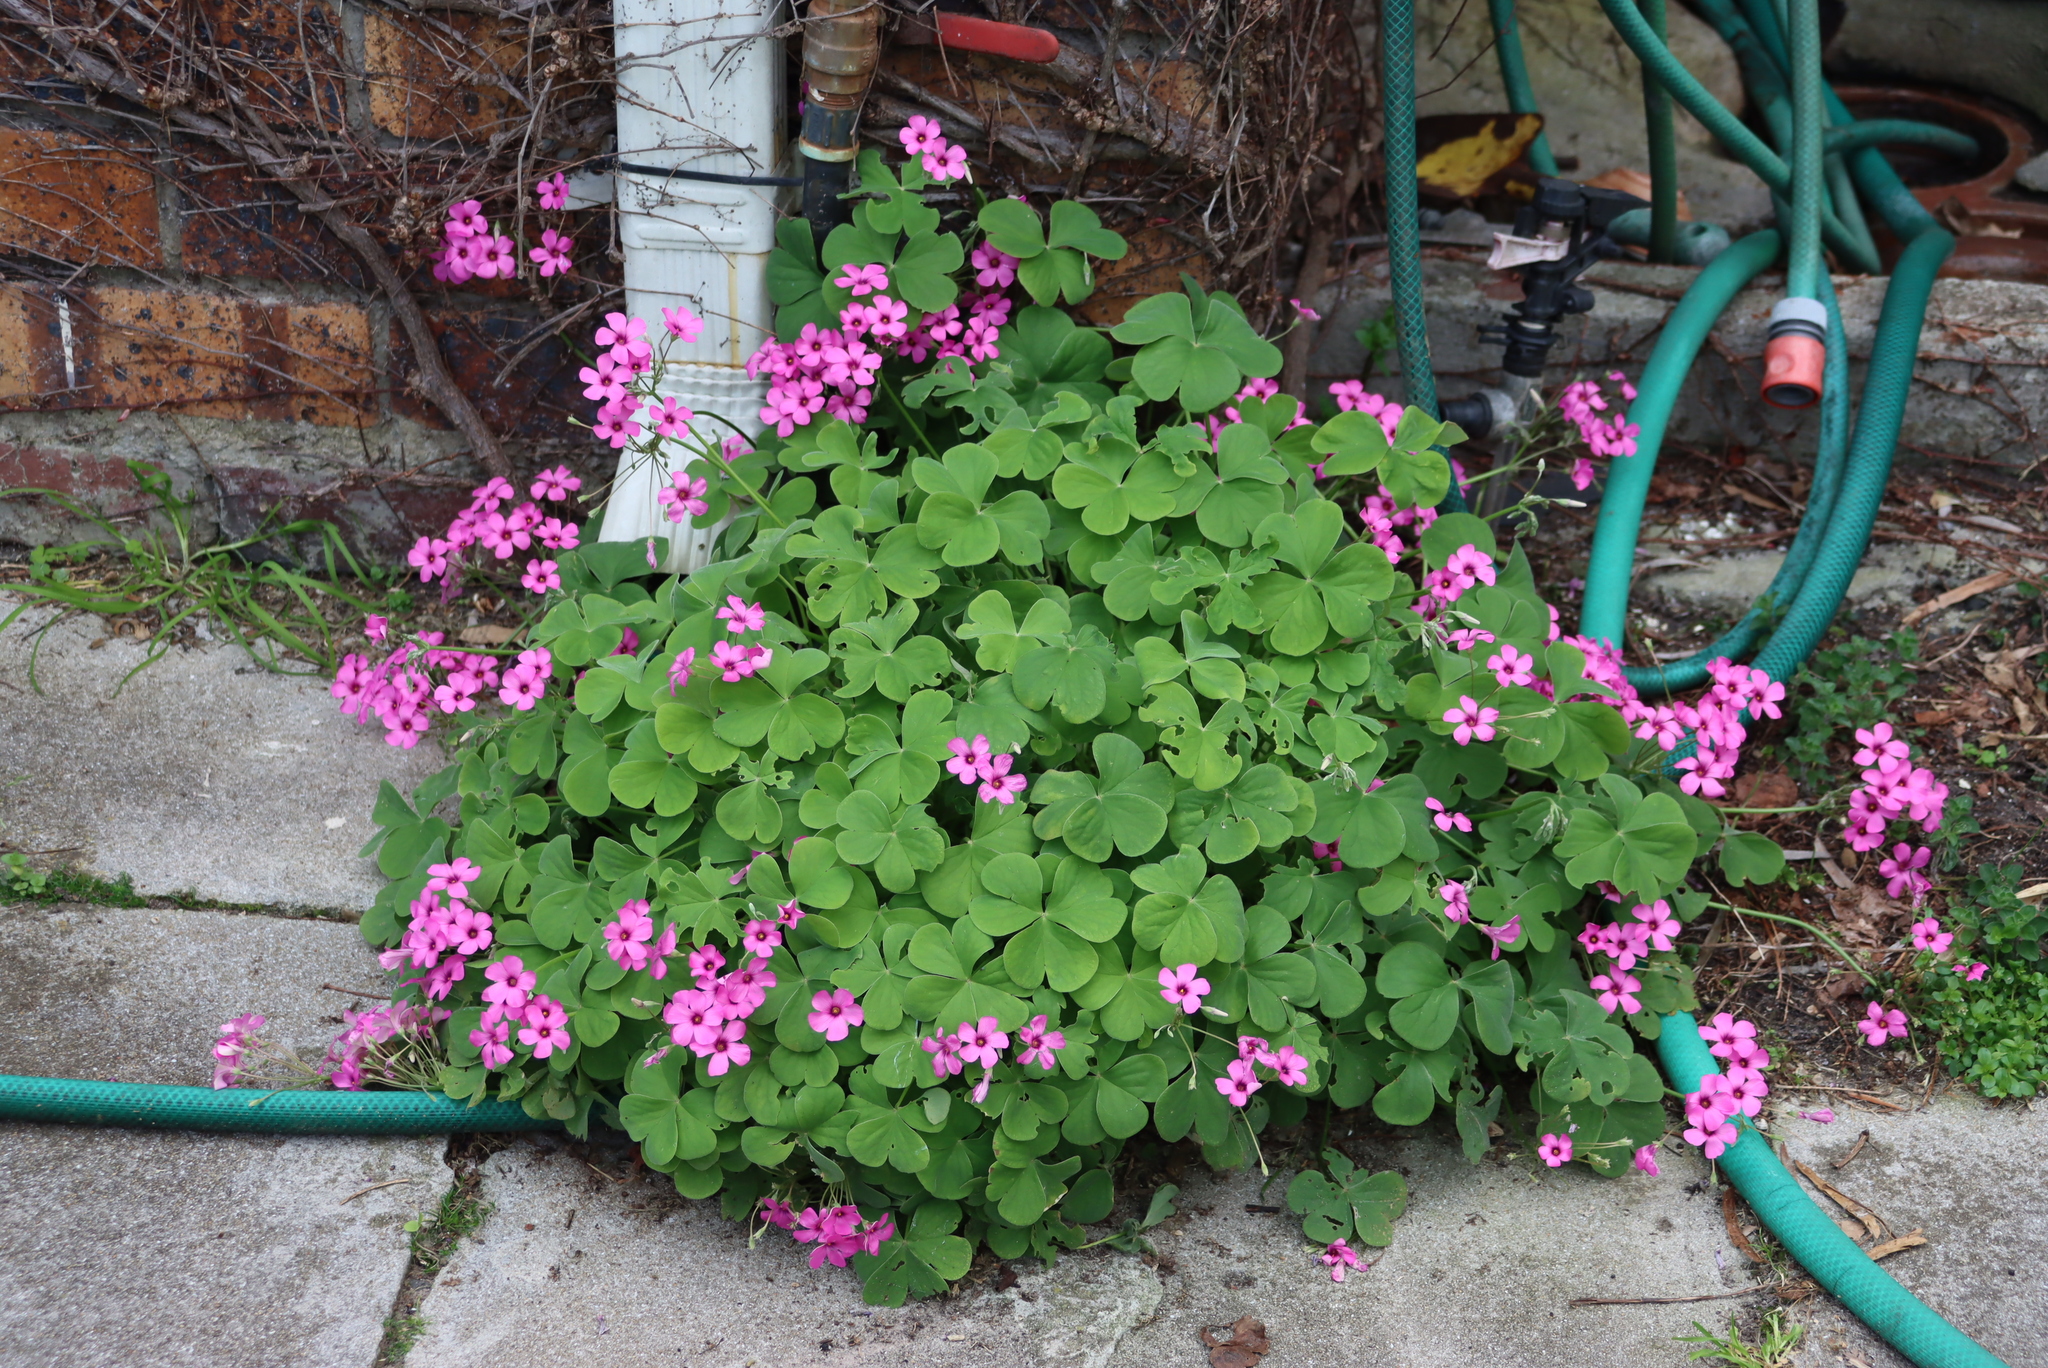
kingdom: Plantae
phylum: Tracheophyta
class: Magnoliopsida
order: Oxalidales
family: Oxalidaceae
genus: Oxalis
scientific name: Oxalis articulata
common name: Pink-sorrel
